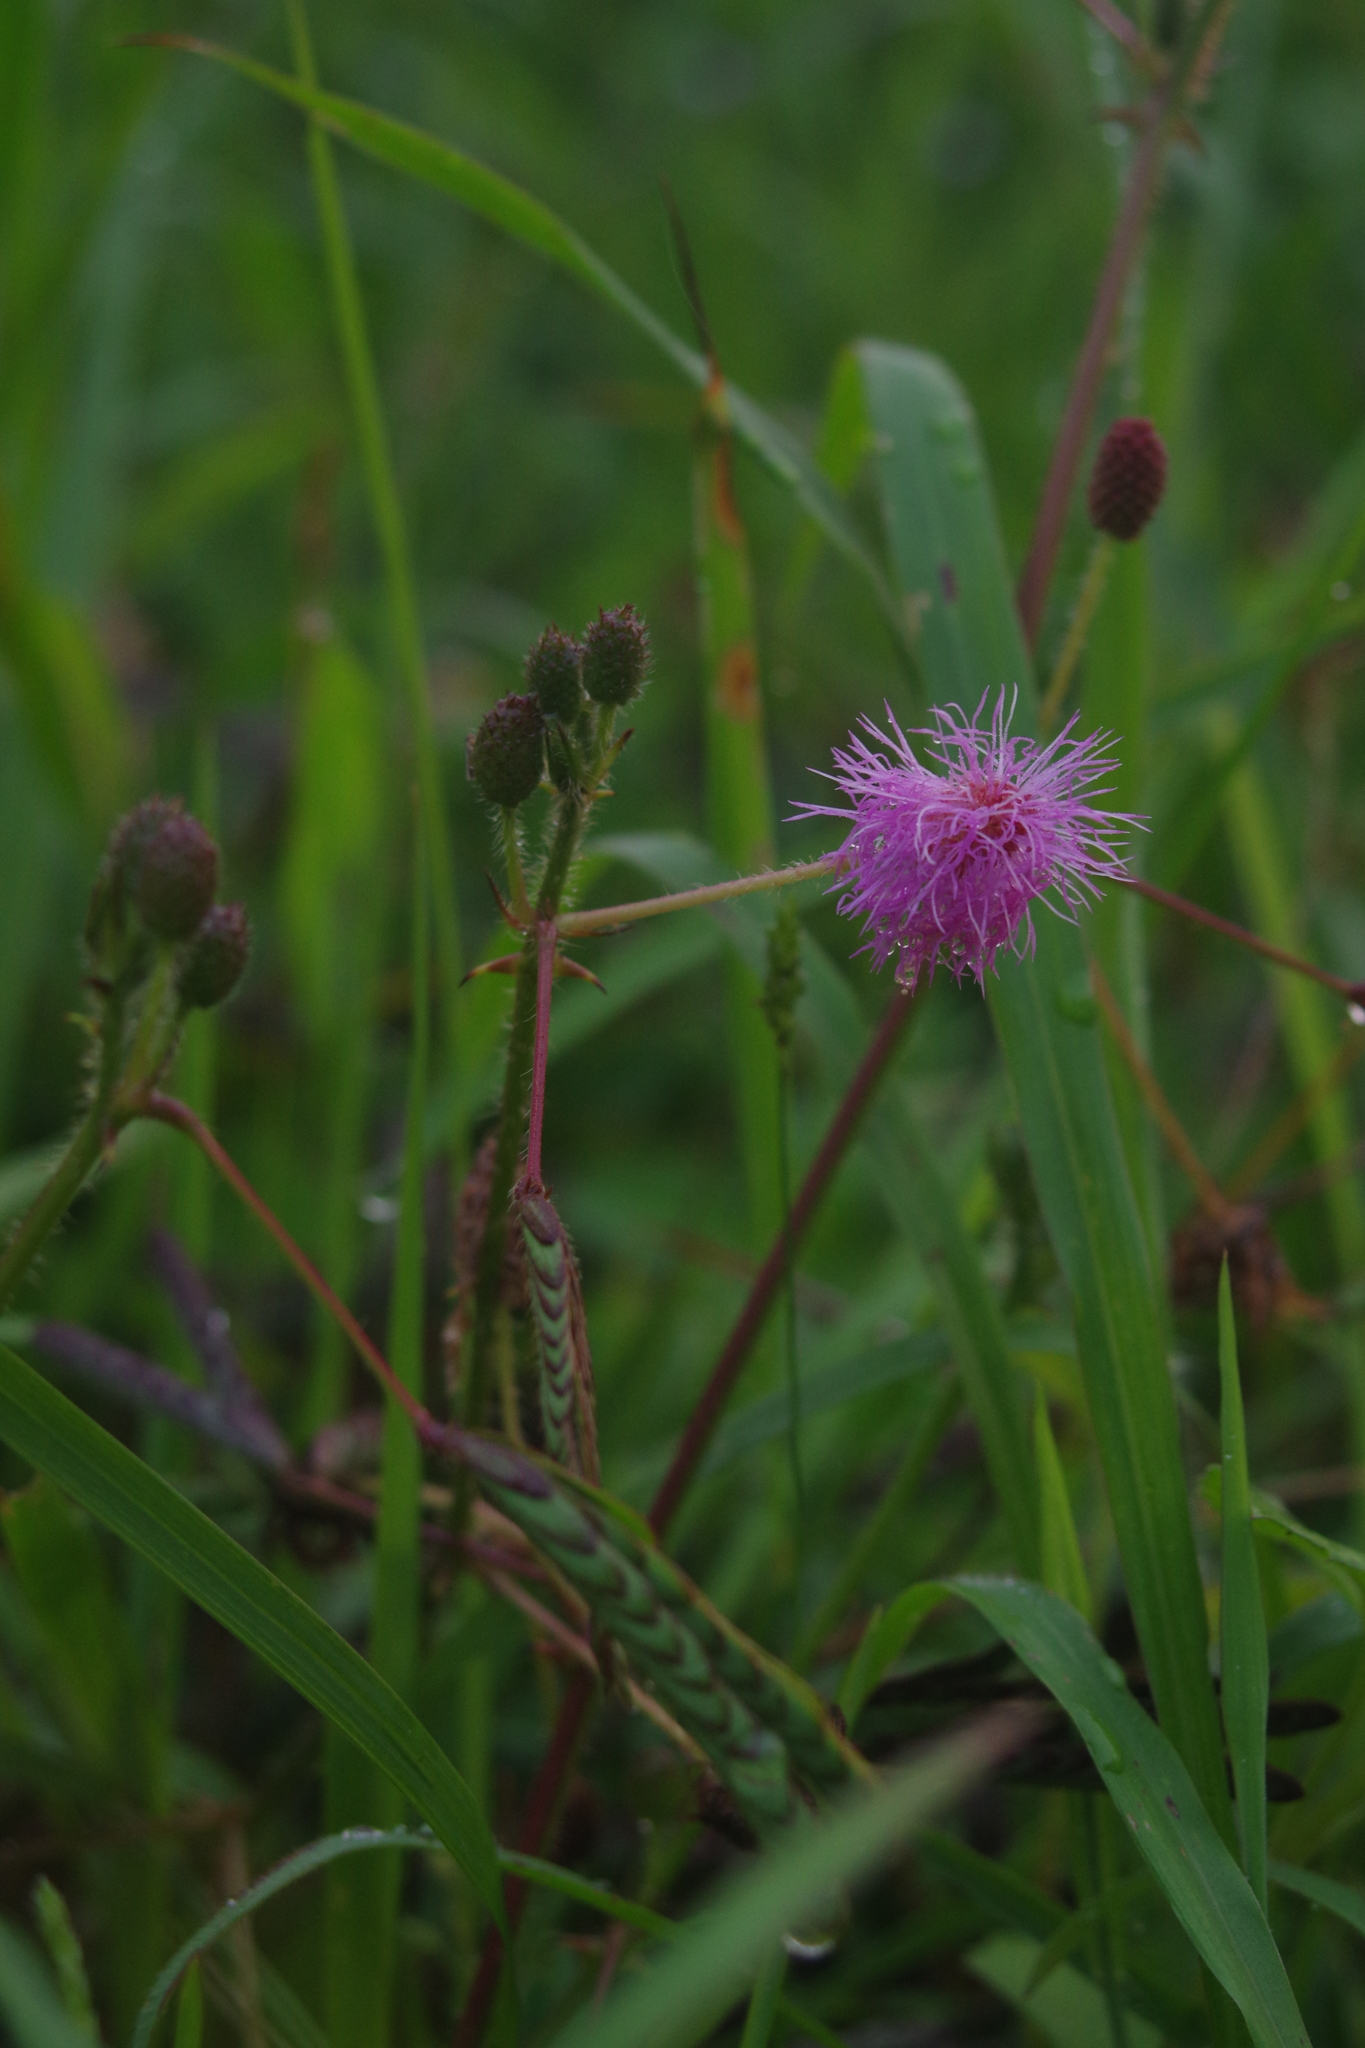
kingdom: Plantae
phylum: Tracheophyta
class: Magnoliopsida
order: Fabales
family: Fabaceae
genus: Mimosa
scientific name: Mimosa pudica
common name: Sensitive plant
